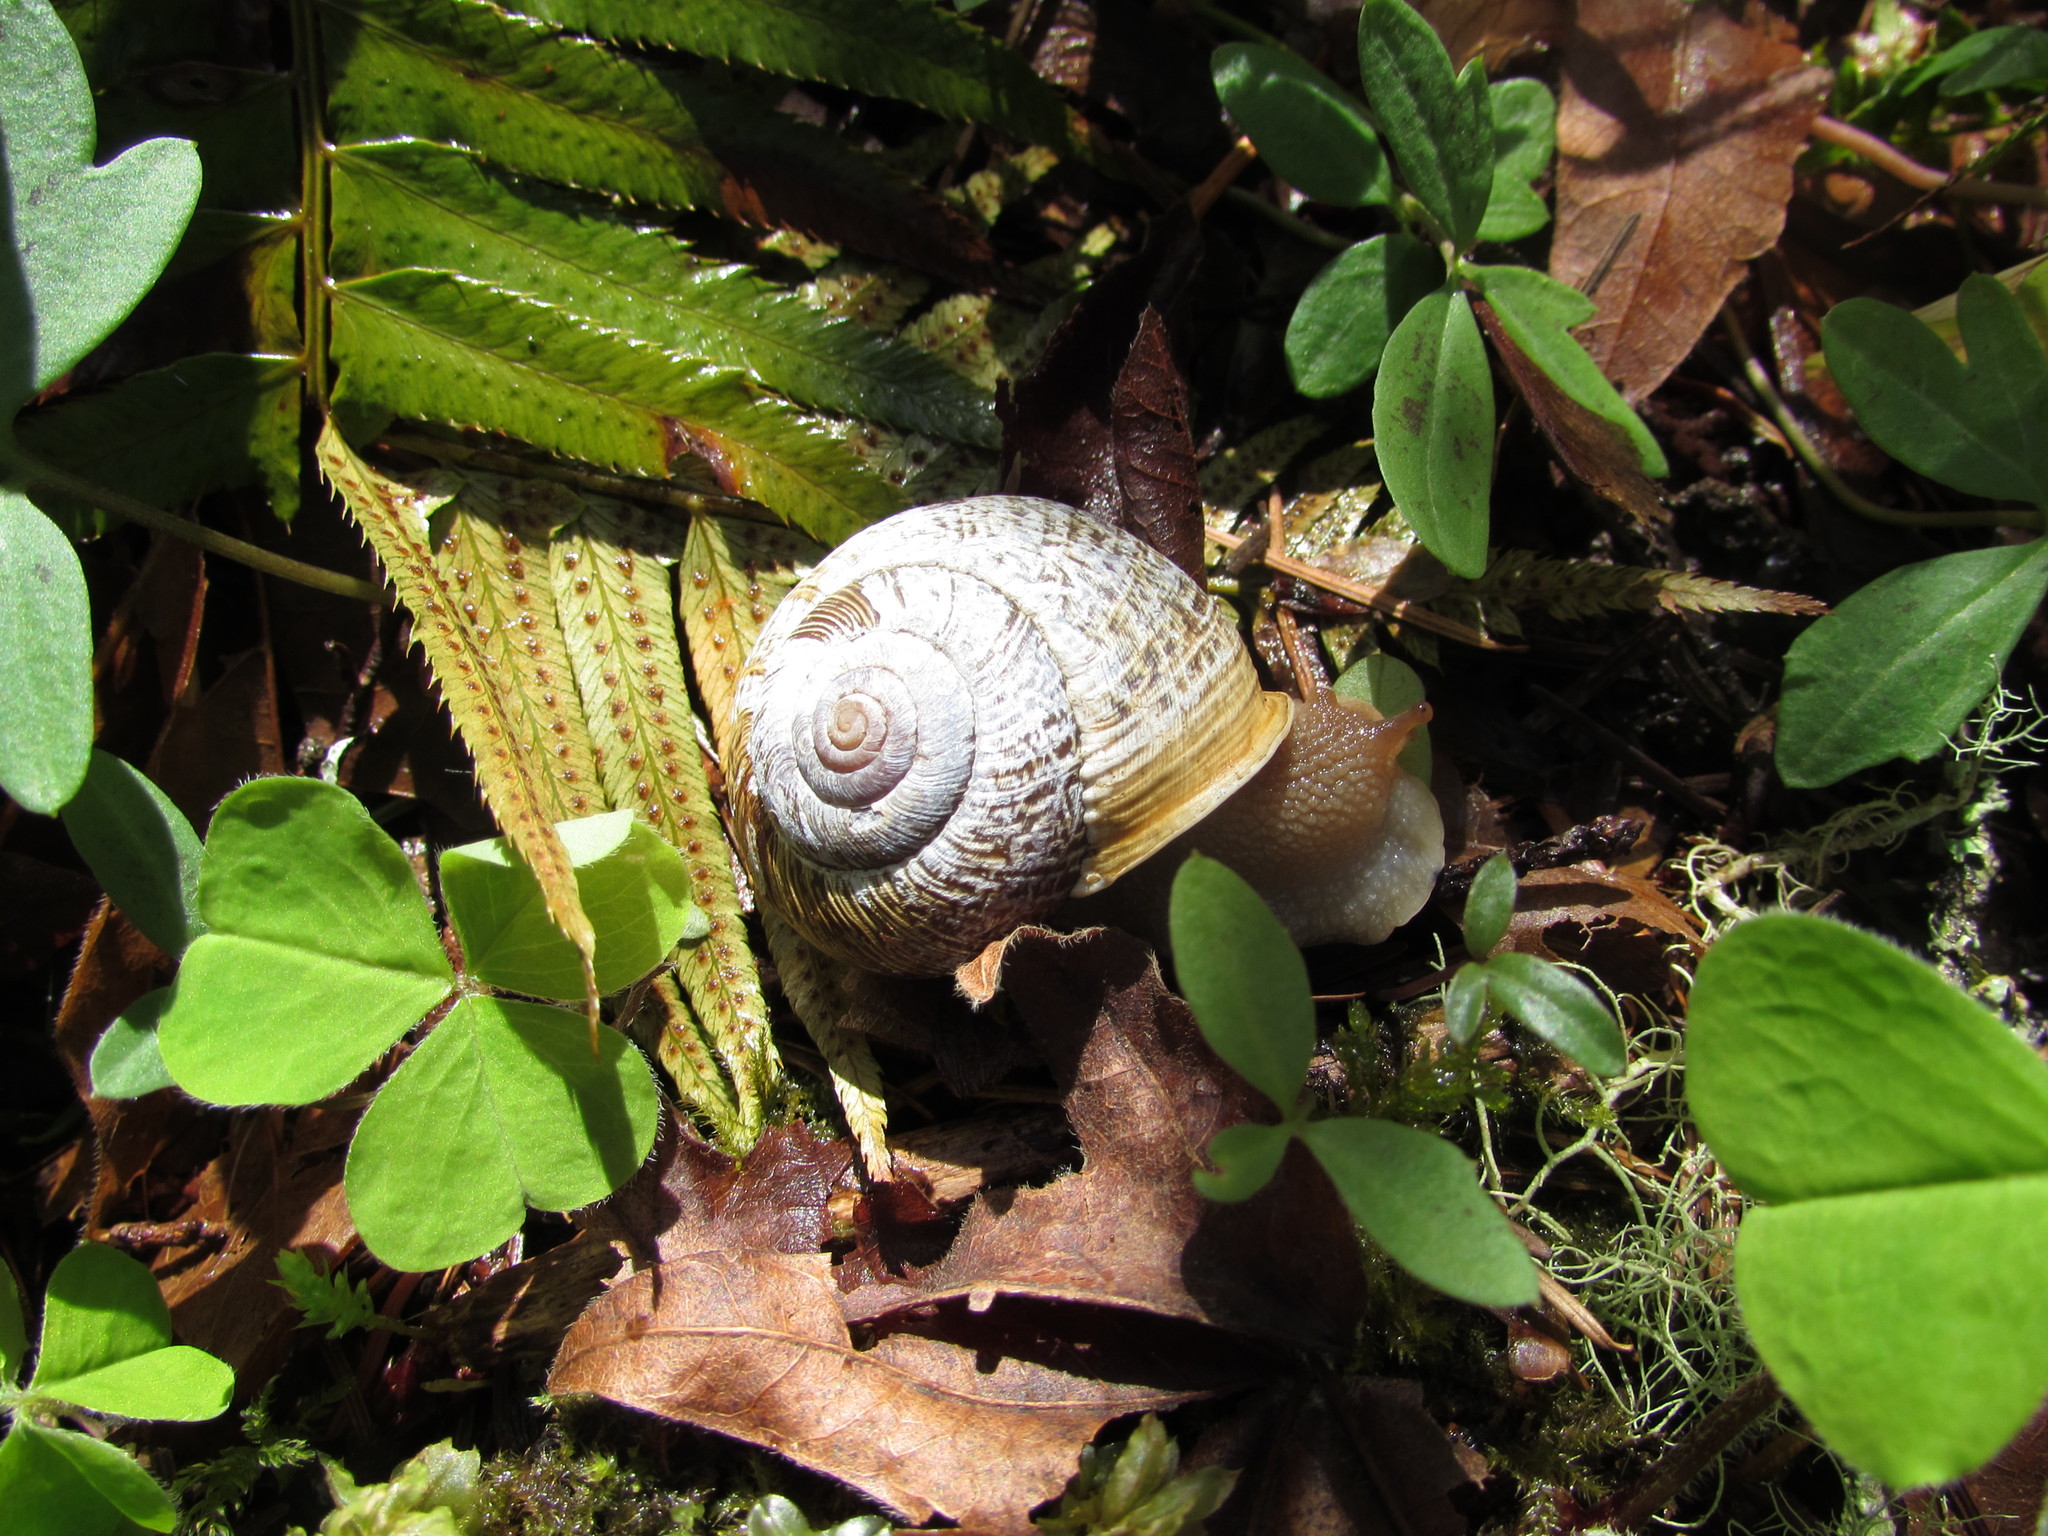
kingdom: Animalia
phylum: Mollusca
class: Gastropoda
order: Stylommatophora
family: Polygyridae
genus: Allogona
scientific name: Allogona townsendiana
